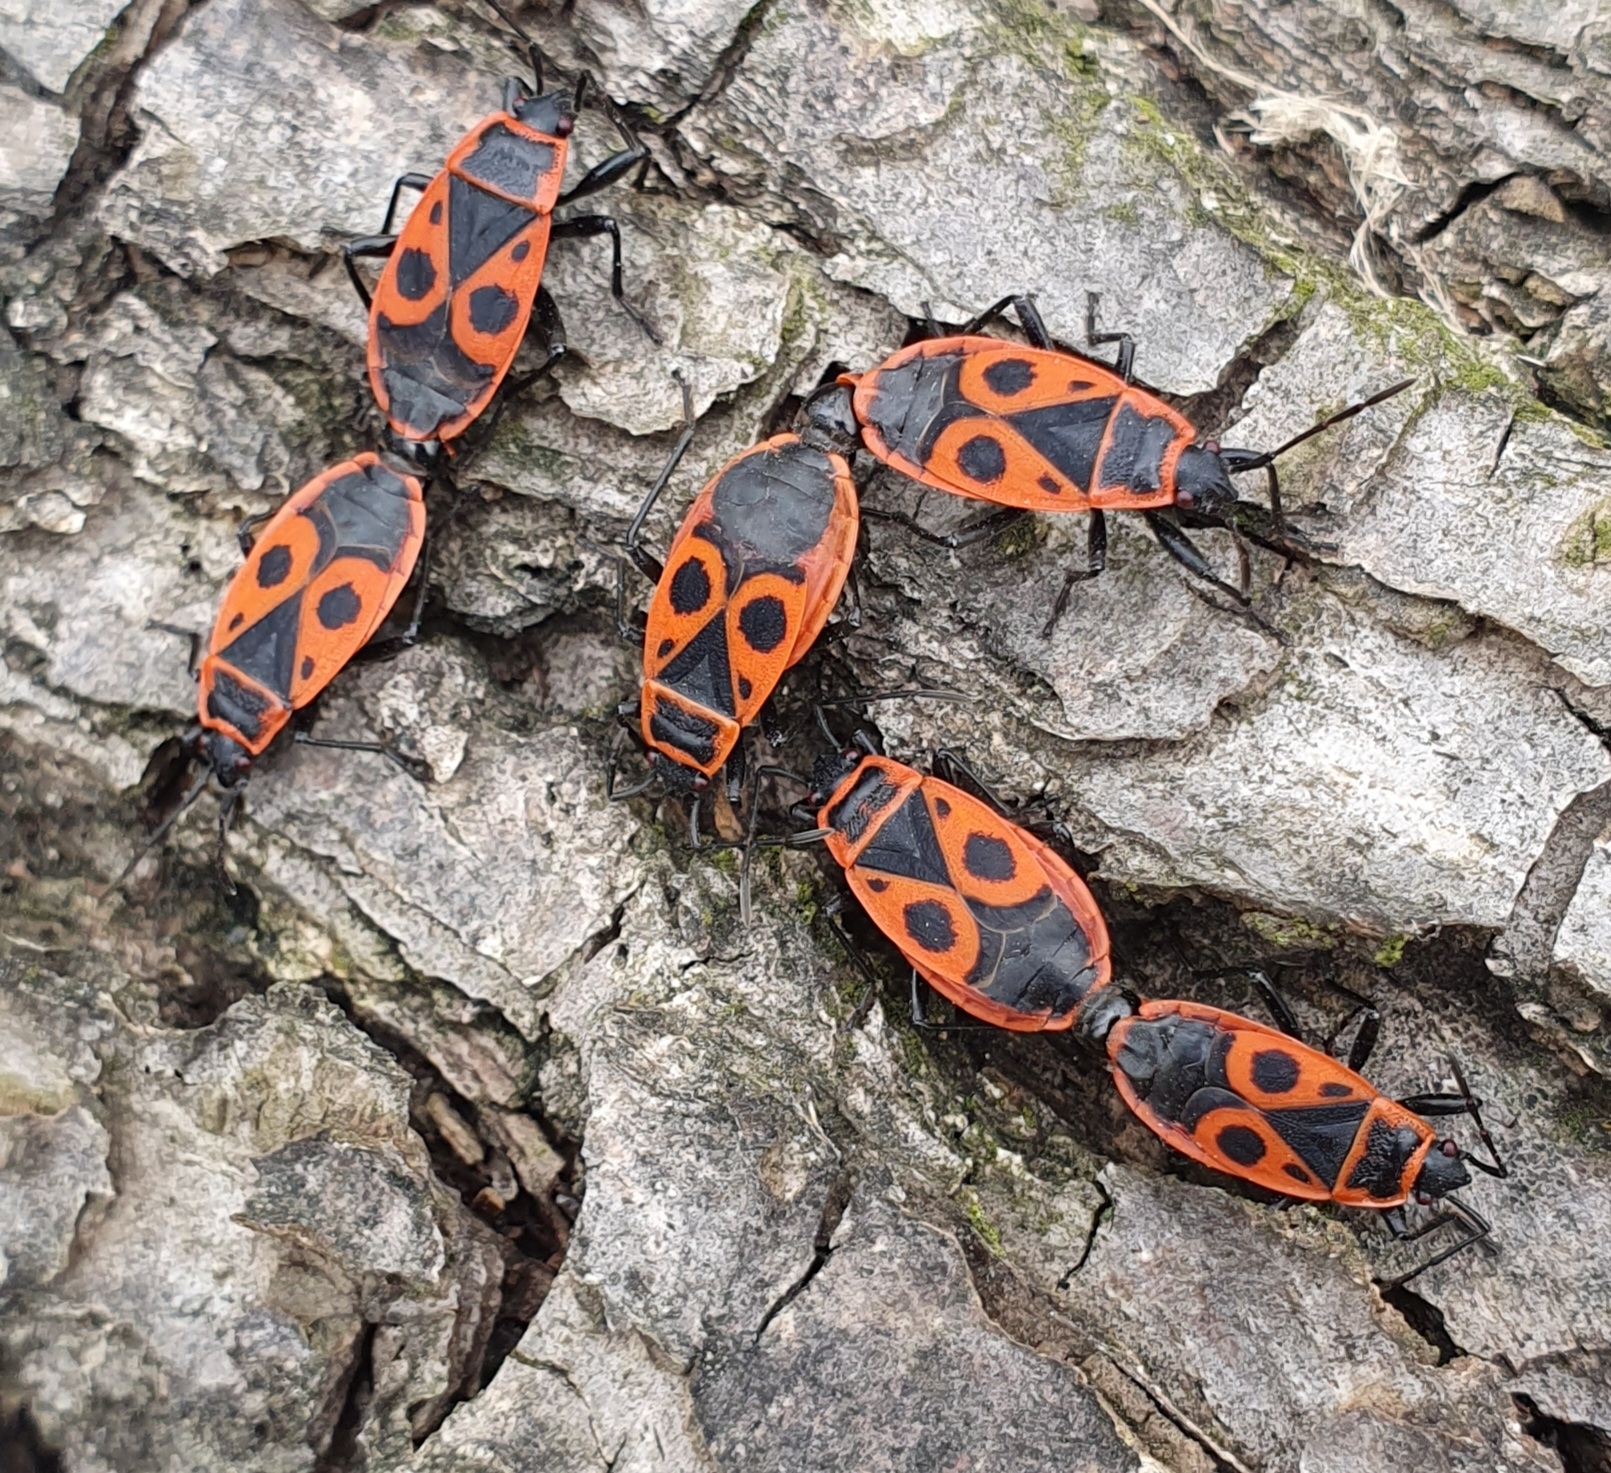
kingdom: Animalia
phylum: Arthropoda
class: Insecta
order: Hemiptera
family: Pyrrhocoridae
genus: Pyrrhocoris
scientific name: Pyrrhocoris apterus
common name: Firebug
